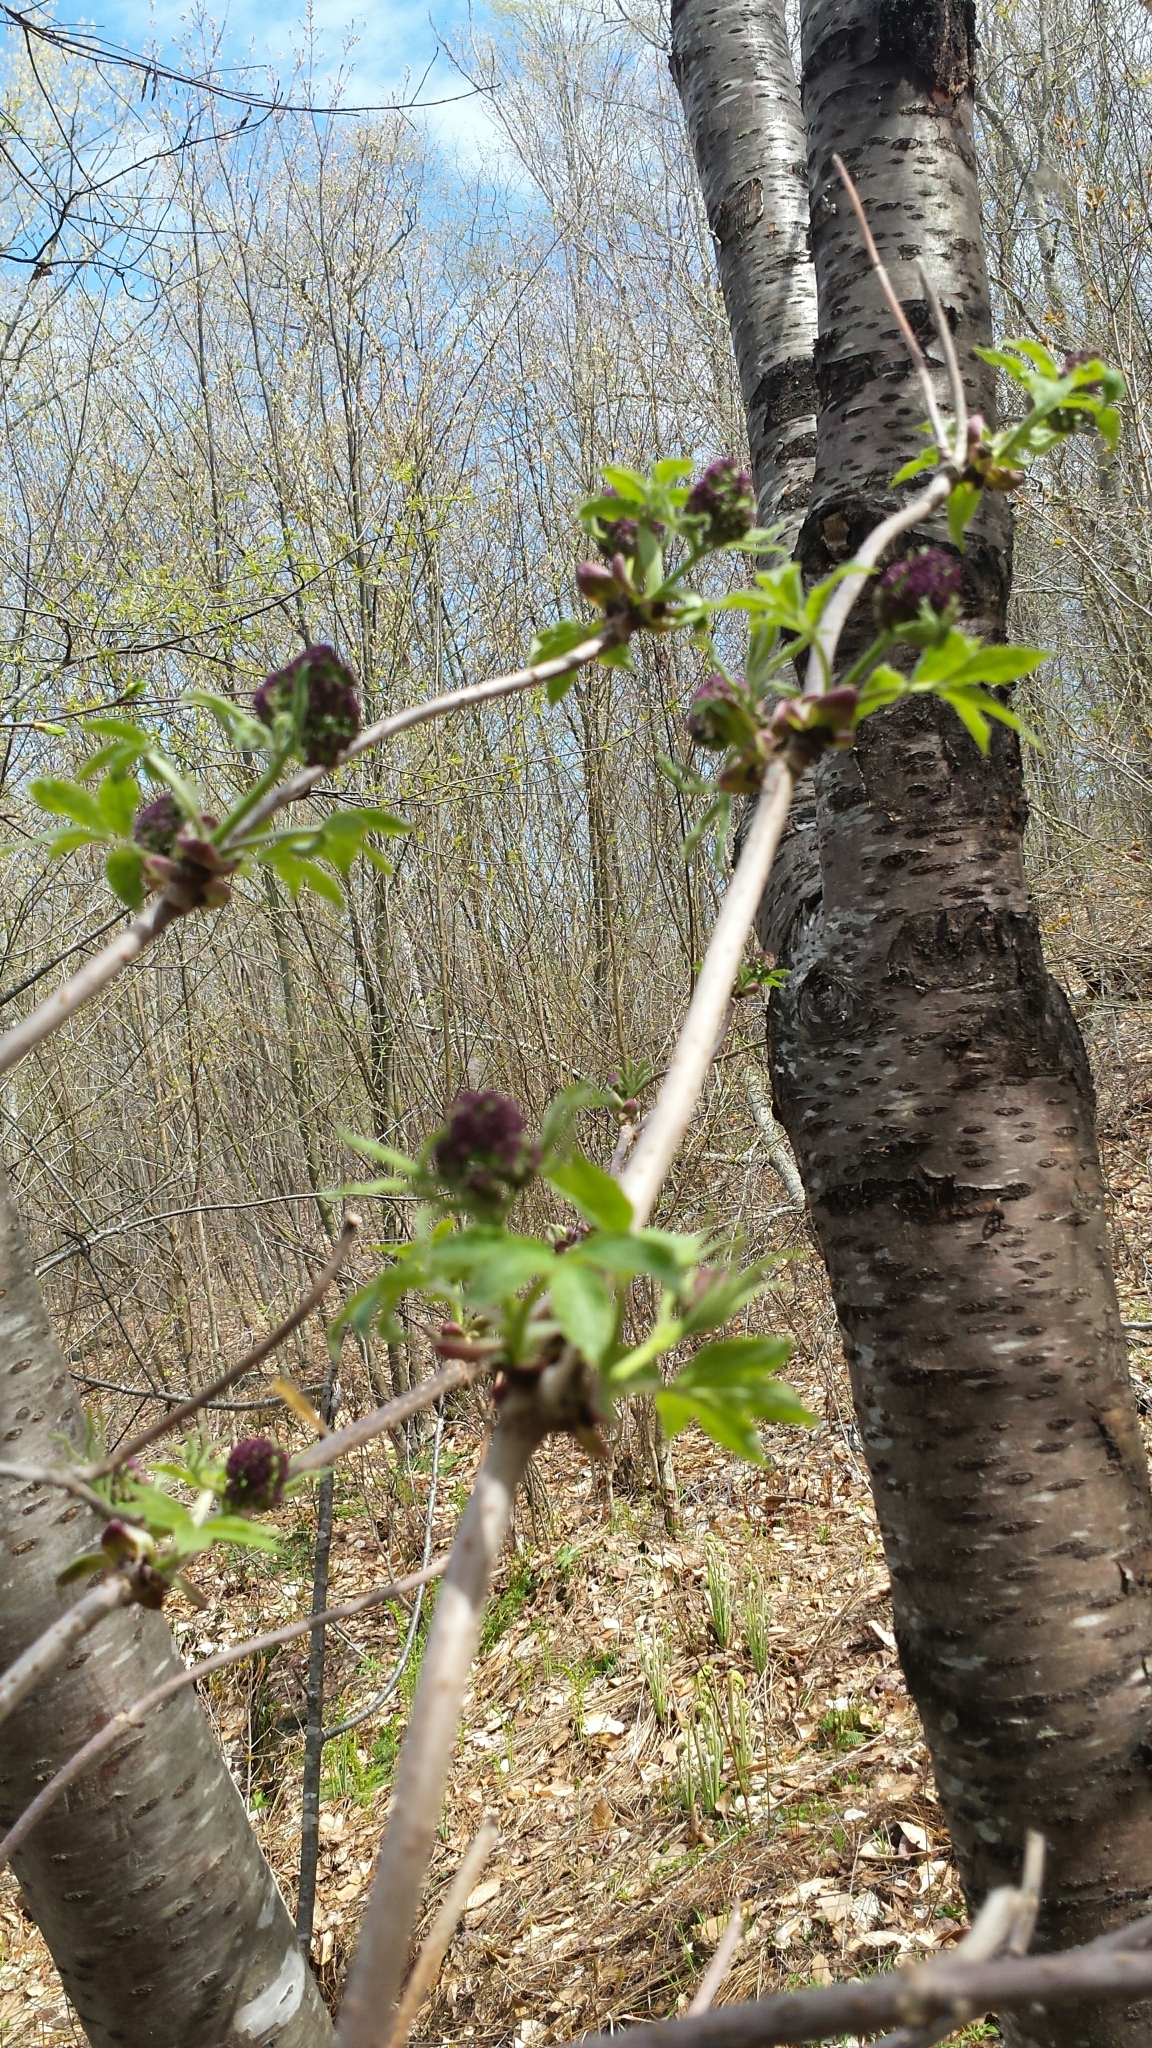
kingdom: Plantae
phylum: Tracheophyta
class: Magnoliopsida
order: Dipsacales
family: Viburnaceae
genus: Sambucus
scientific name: Sambucus racemosa
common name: Red-berried elder
